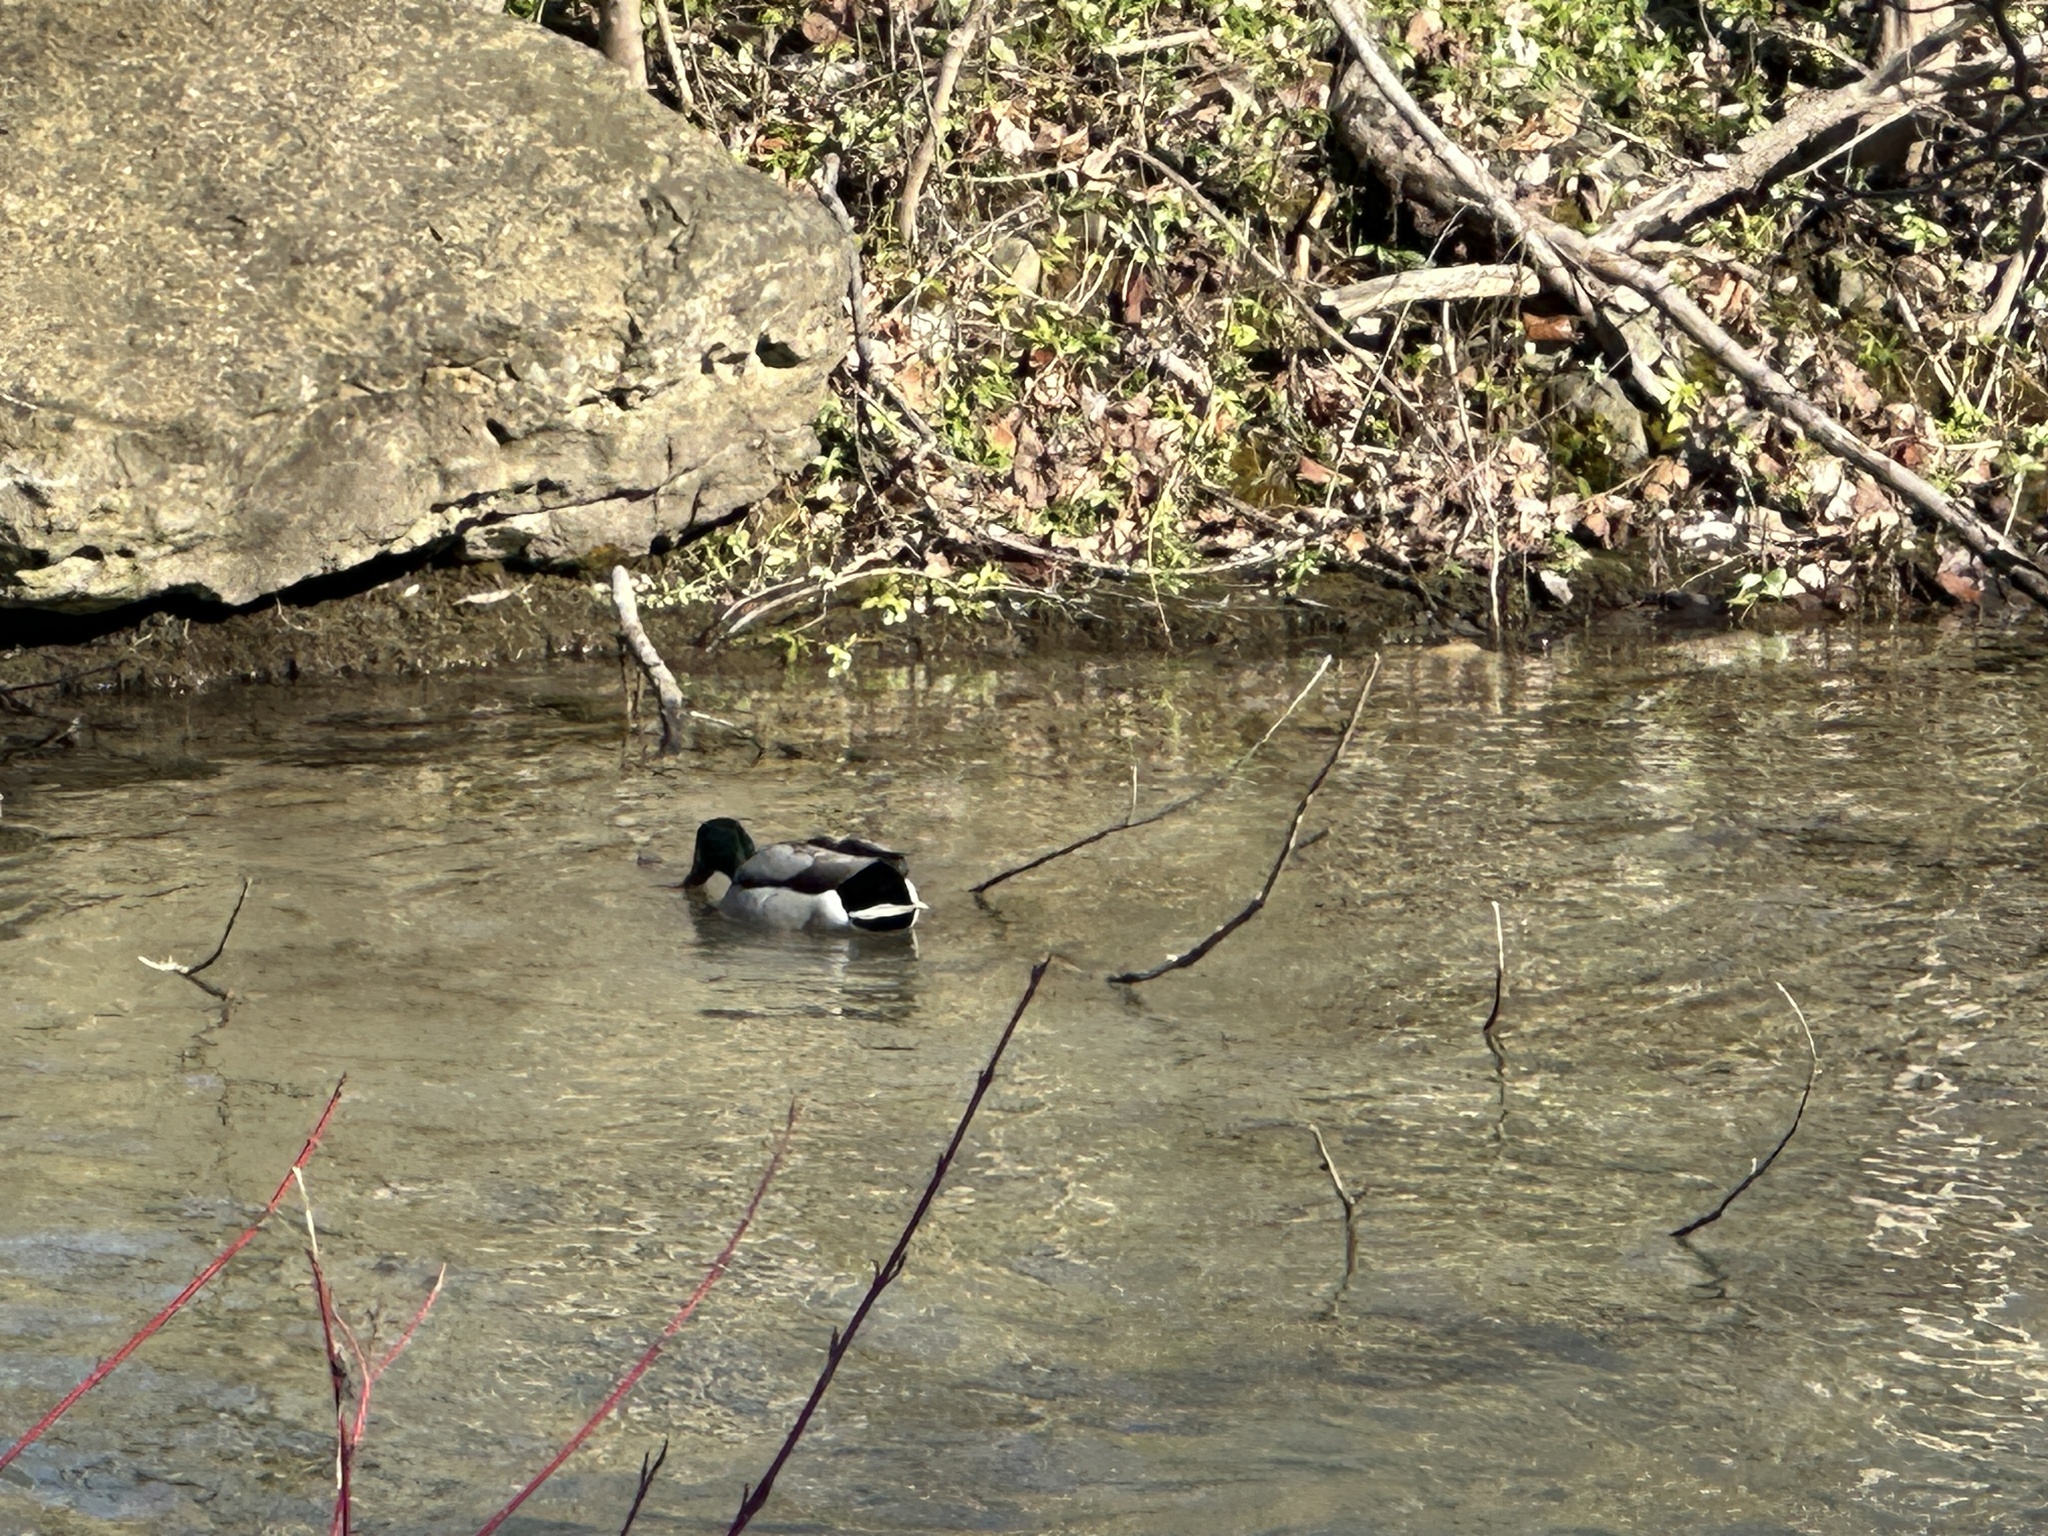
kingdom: Animalia
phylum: Chordata
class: Aves
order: Anseriformes
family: Anatidae
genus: Anas
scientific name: Anas platyrhynchos
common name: Mallard
